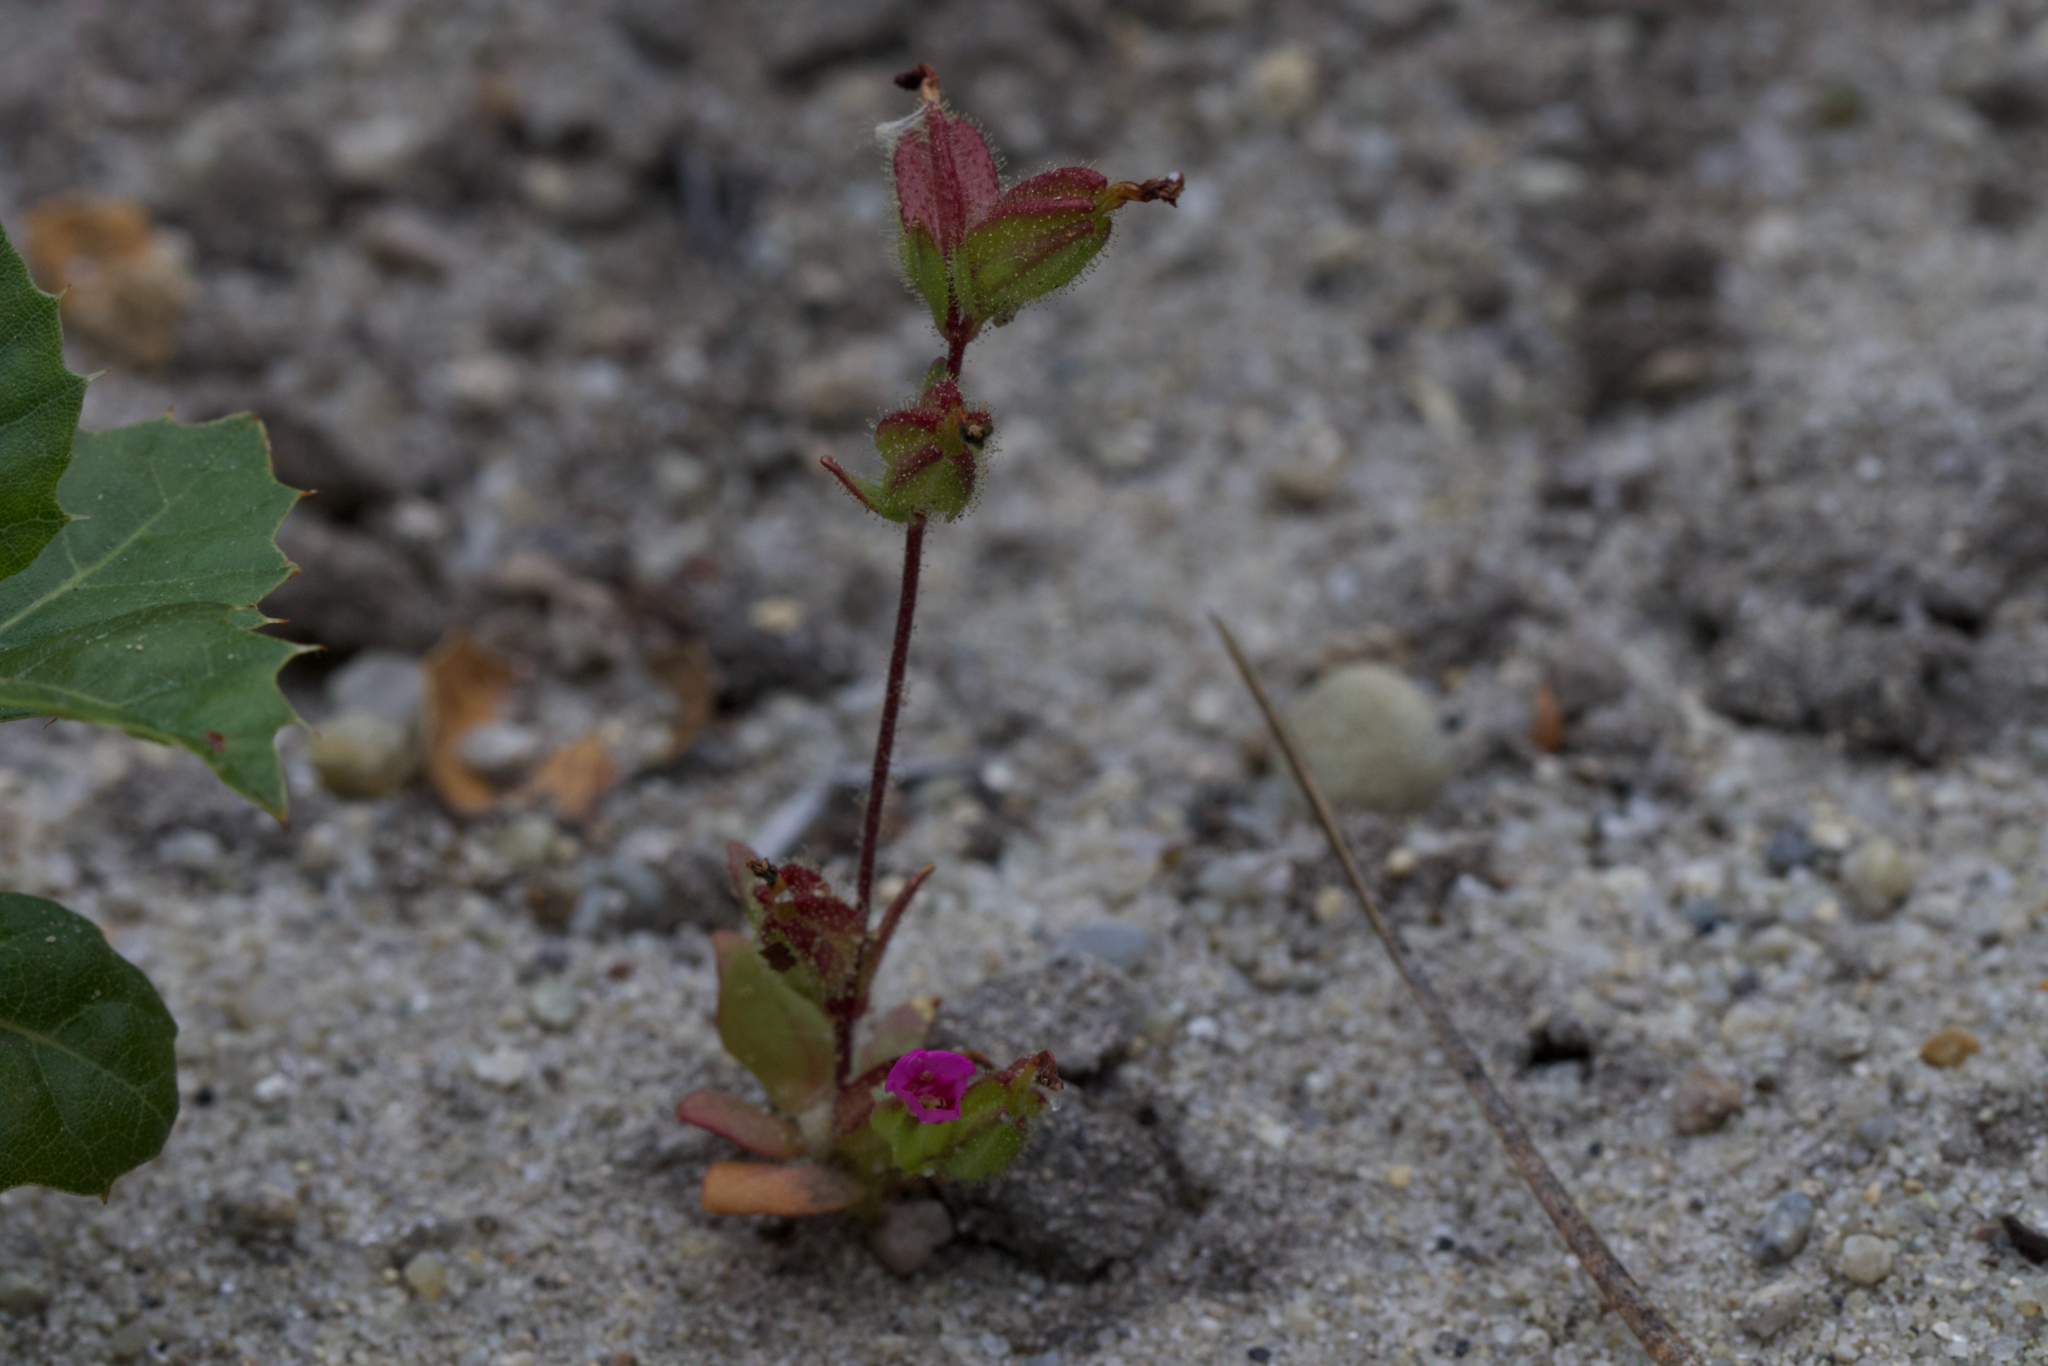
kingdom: Plantae
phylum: Tracheophyta
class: Magnoliopsida
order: Lamiales
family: Phrymaceae
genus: Diplacus
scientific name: Diplacus rattanii
